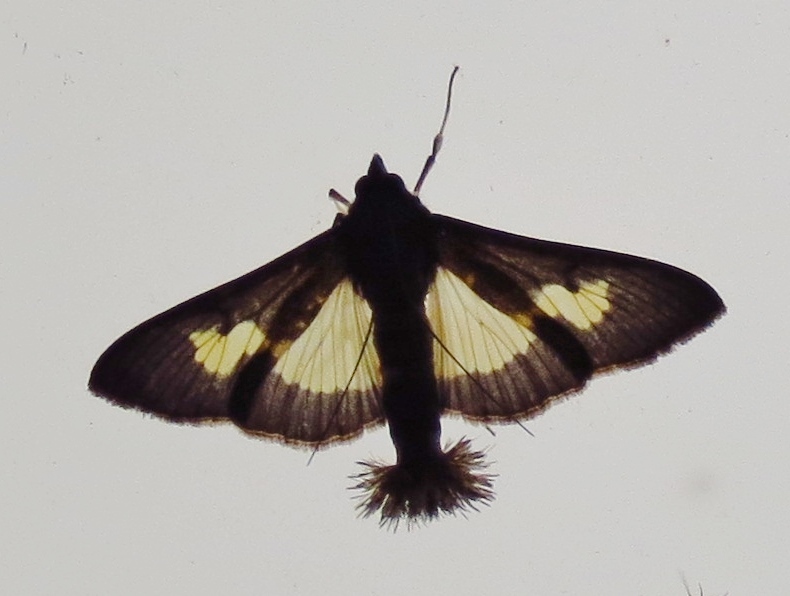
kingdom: Animalia
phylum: Arthropoda
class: Insecta
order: Lepidoptera
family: Crambidae
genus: Cryptographis
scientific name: Cryptographis nitidalis
